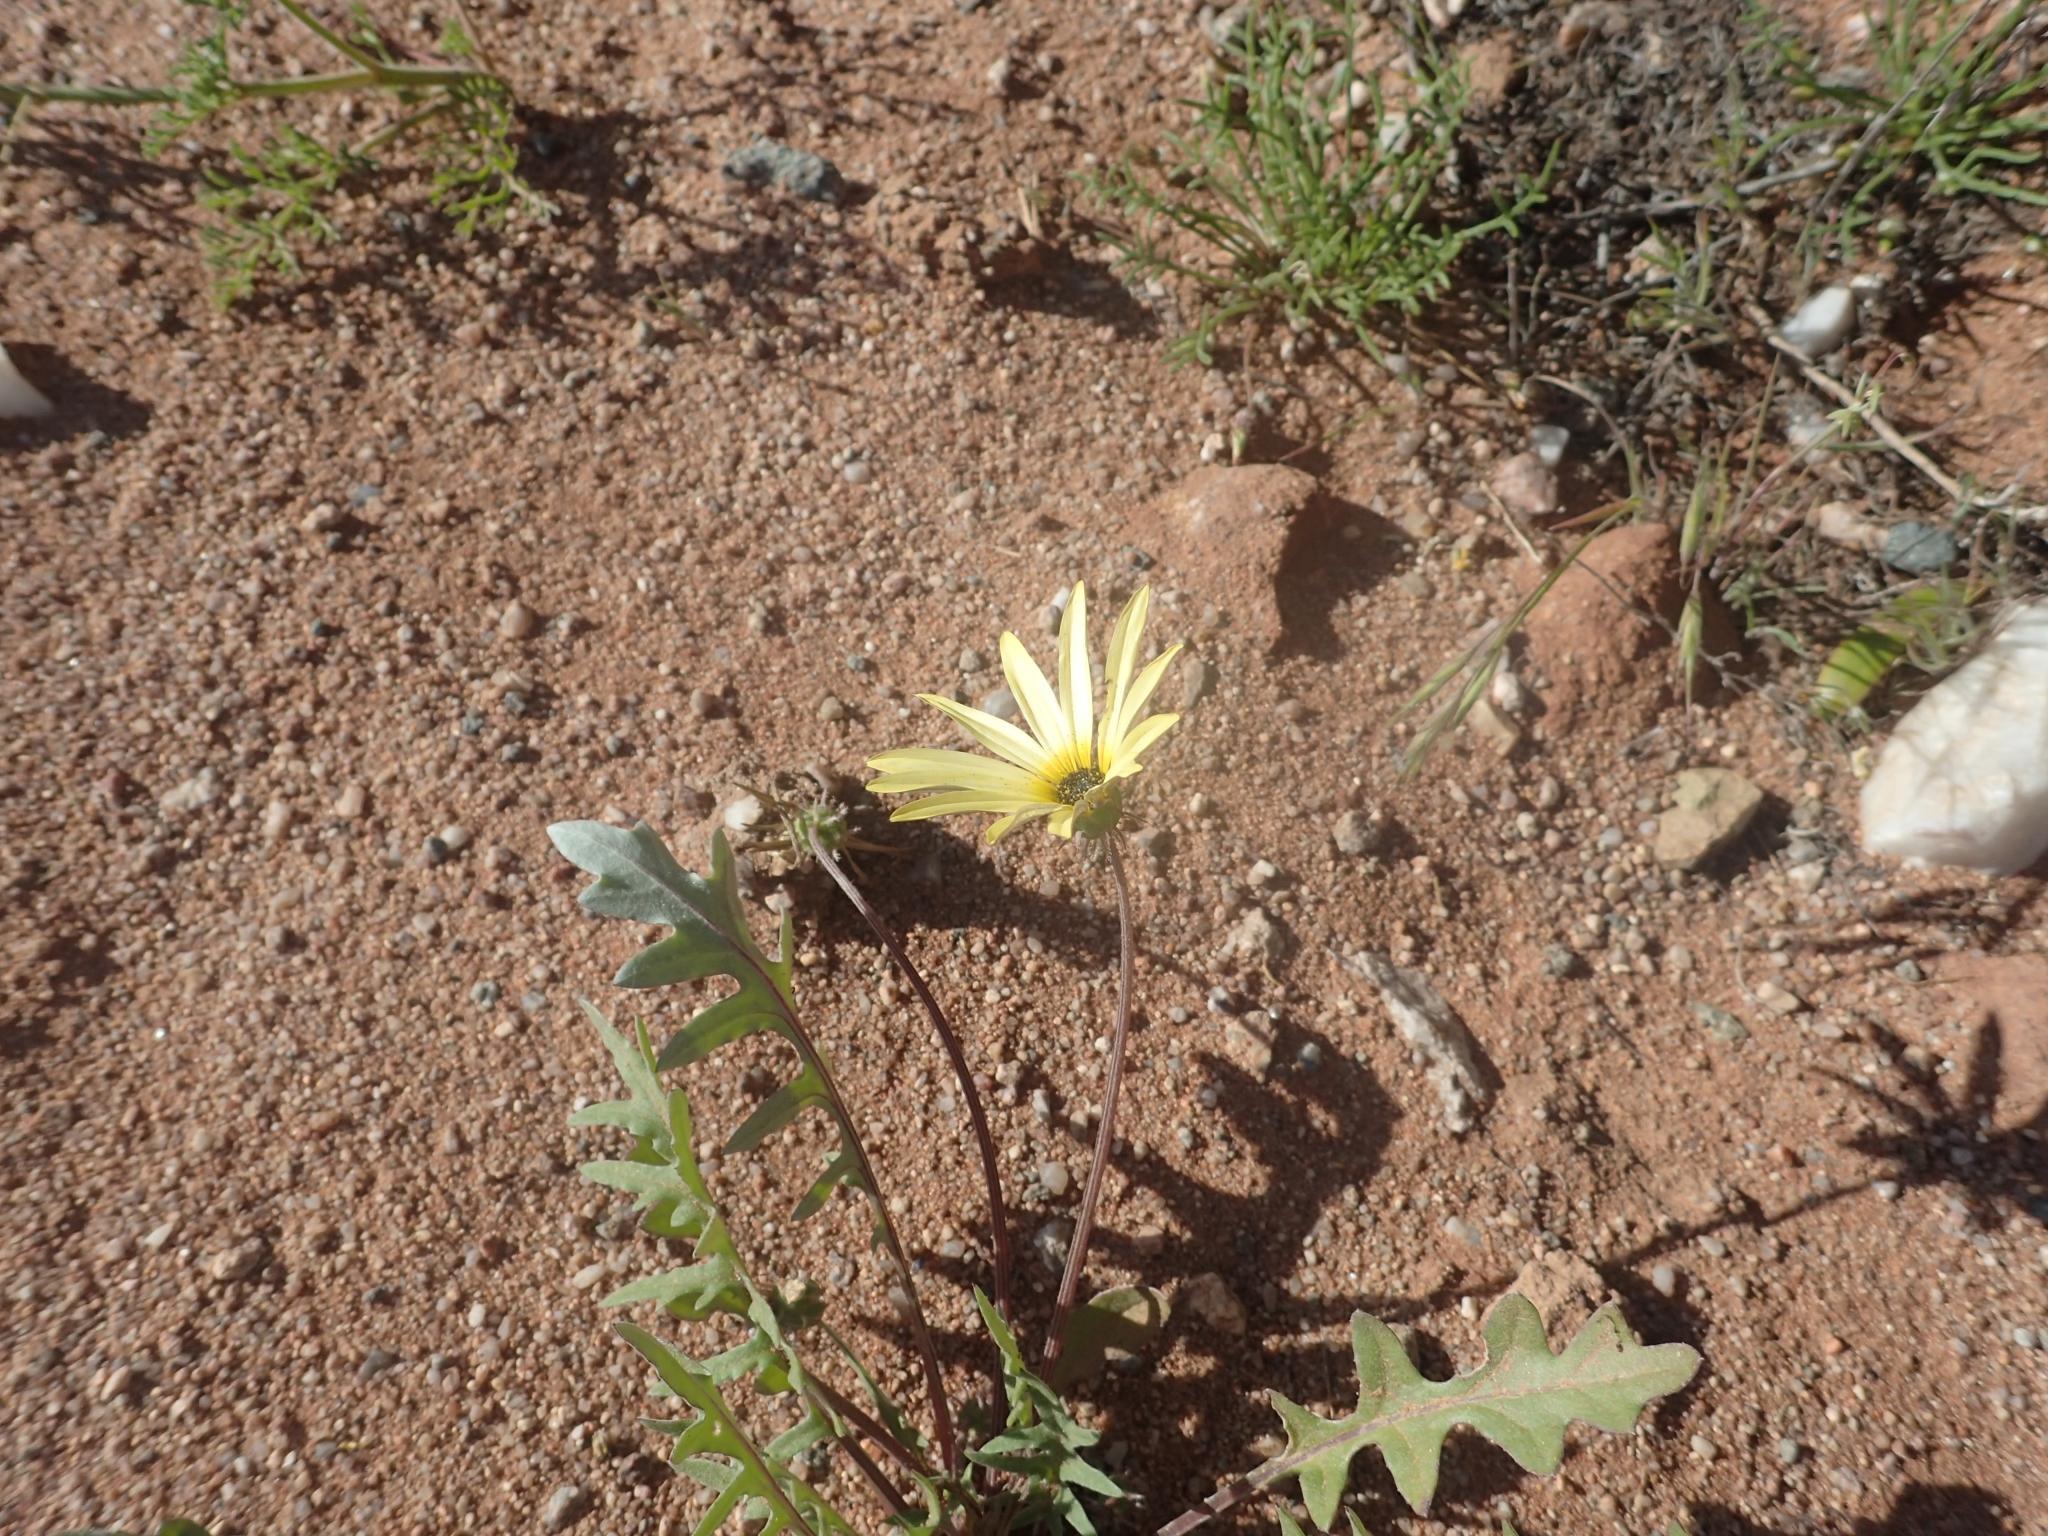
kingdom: Plantae
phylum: Tracheophyta
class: Magnoliopsida
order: Asterales
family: Asteraceae
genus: Arctotheca
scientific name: Arctotheca calendula
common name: Capeweed
